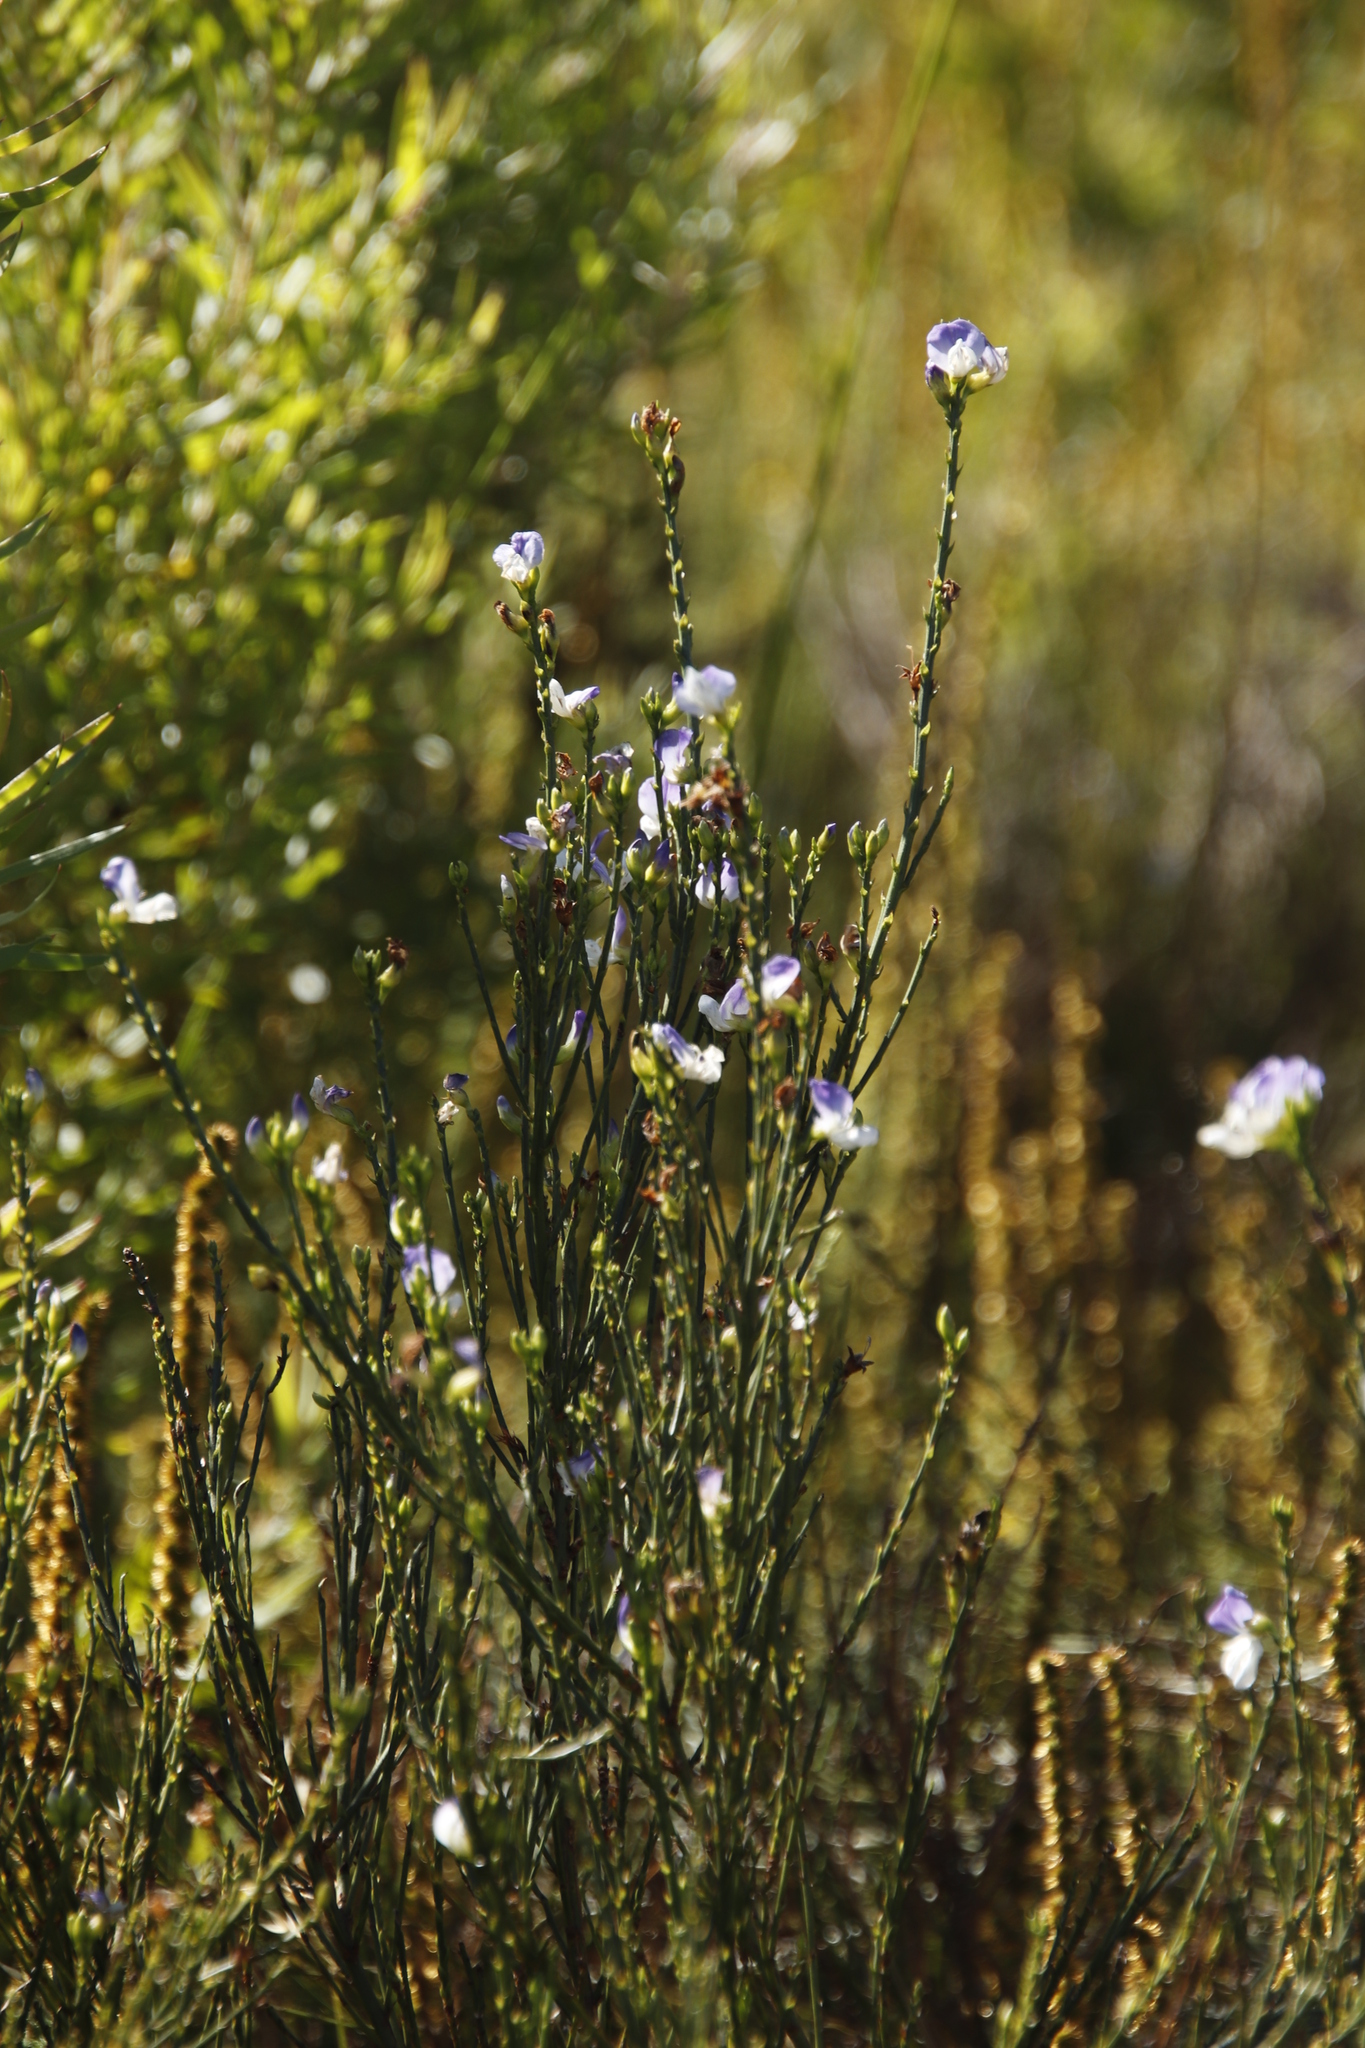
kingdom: Plantae
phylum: Tracheophyta
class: Magnoliopsida
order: Fabales
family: Fabaceae
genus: Psoralea
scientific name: Psoralea usitata
